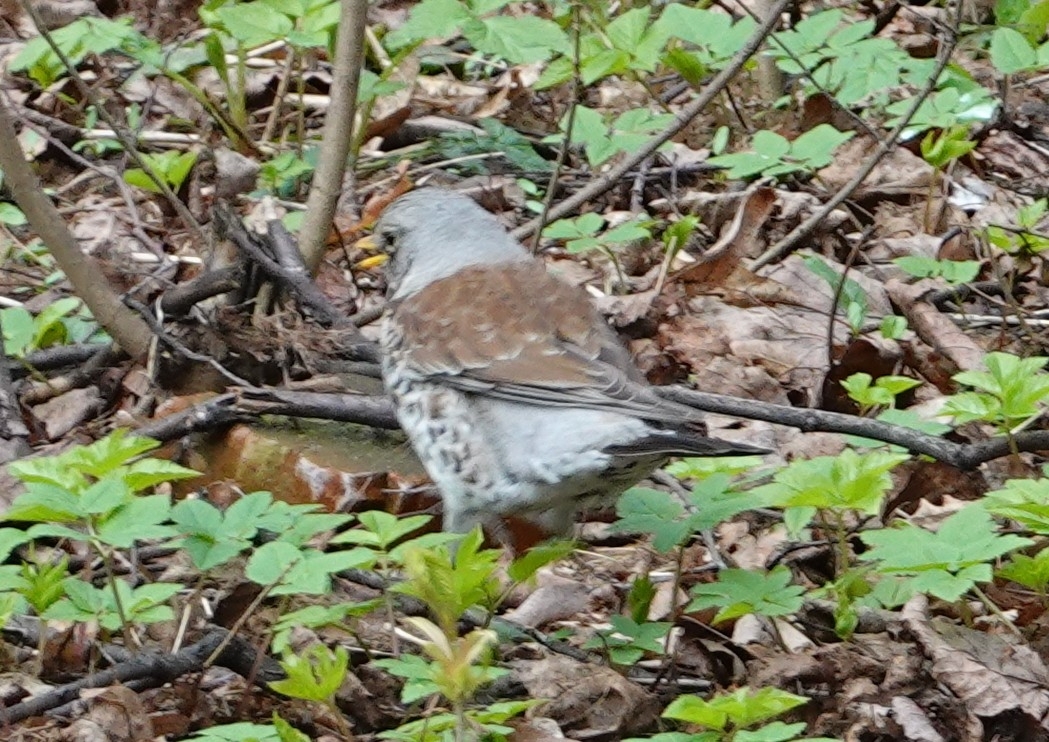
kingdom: Animalia
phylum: Chordata
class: Aves
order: Passeriformes
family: Turdidae
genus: Turdus
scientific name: Turdus pilaris
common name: Fieldfare
